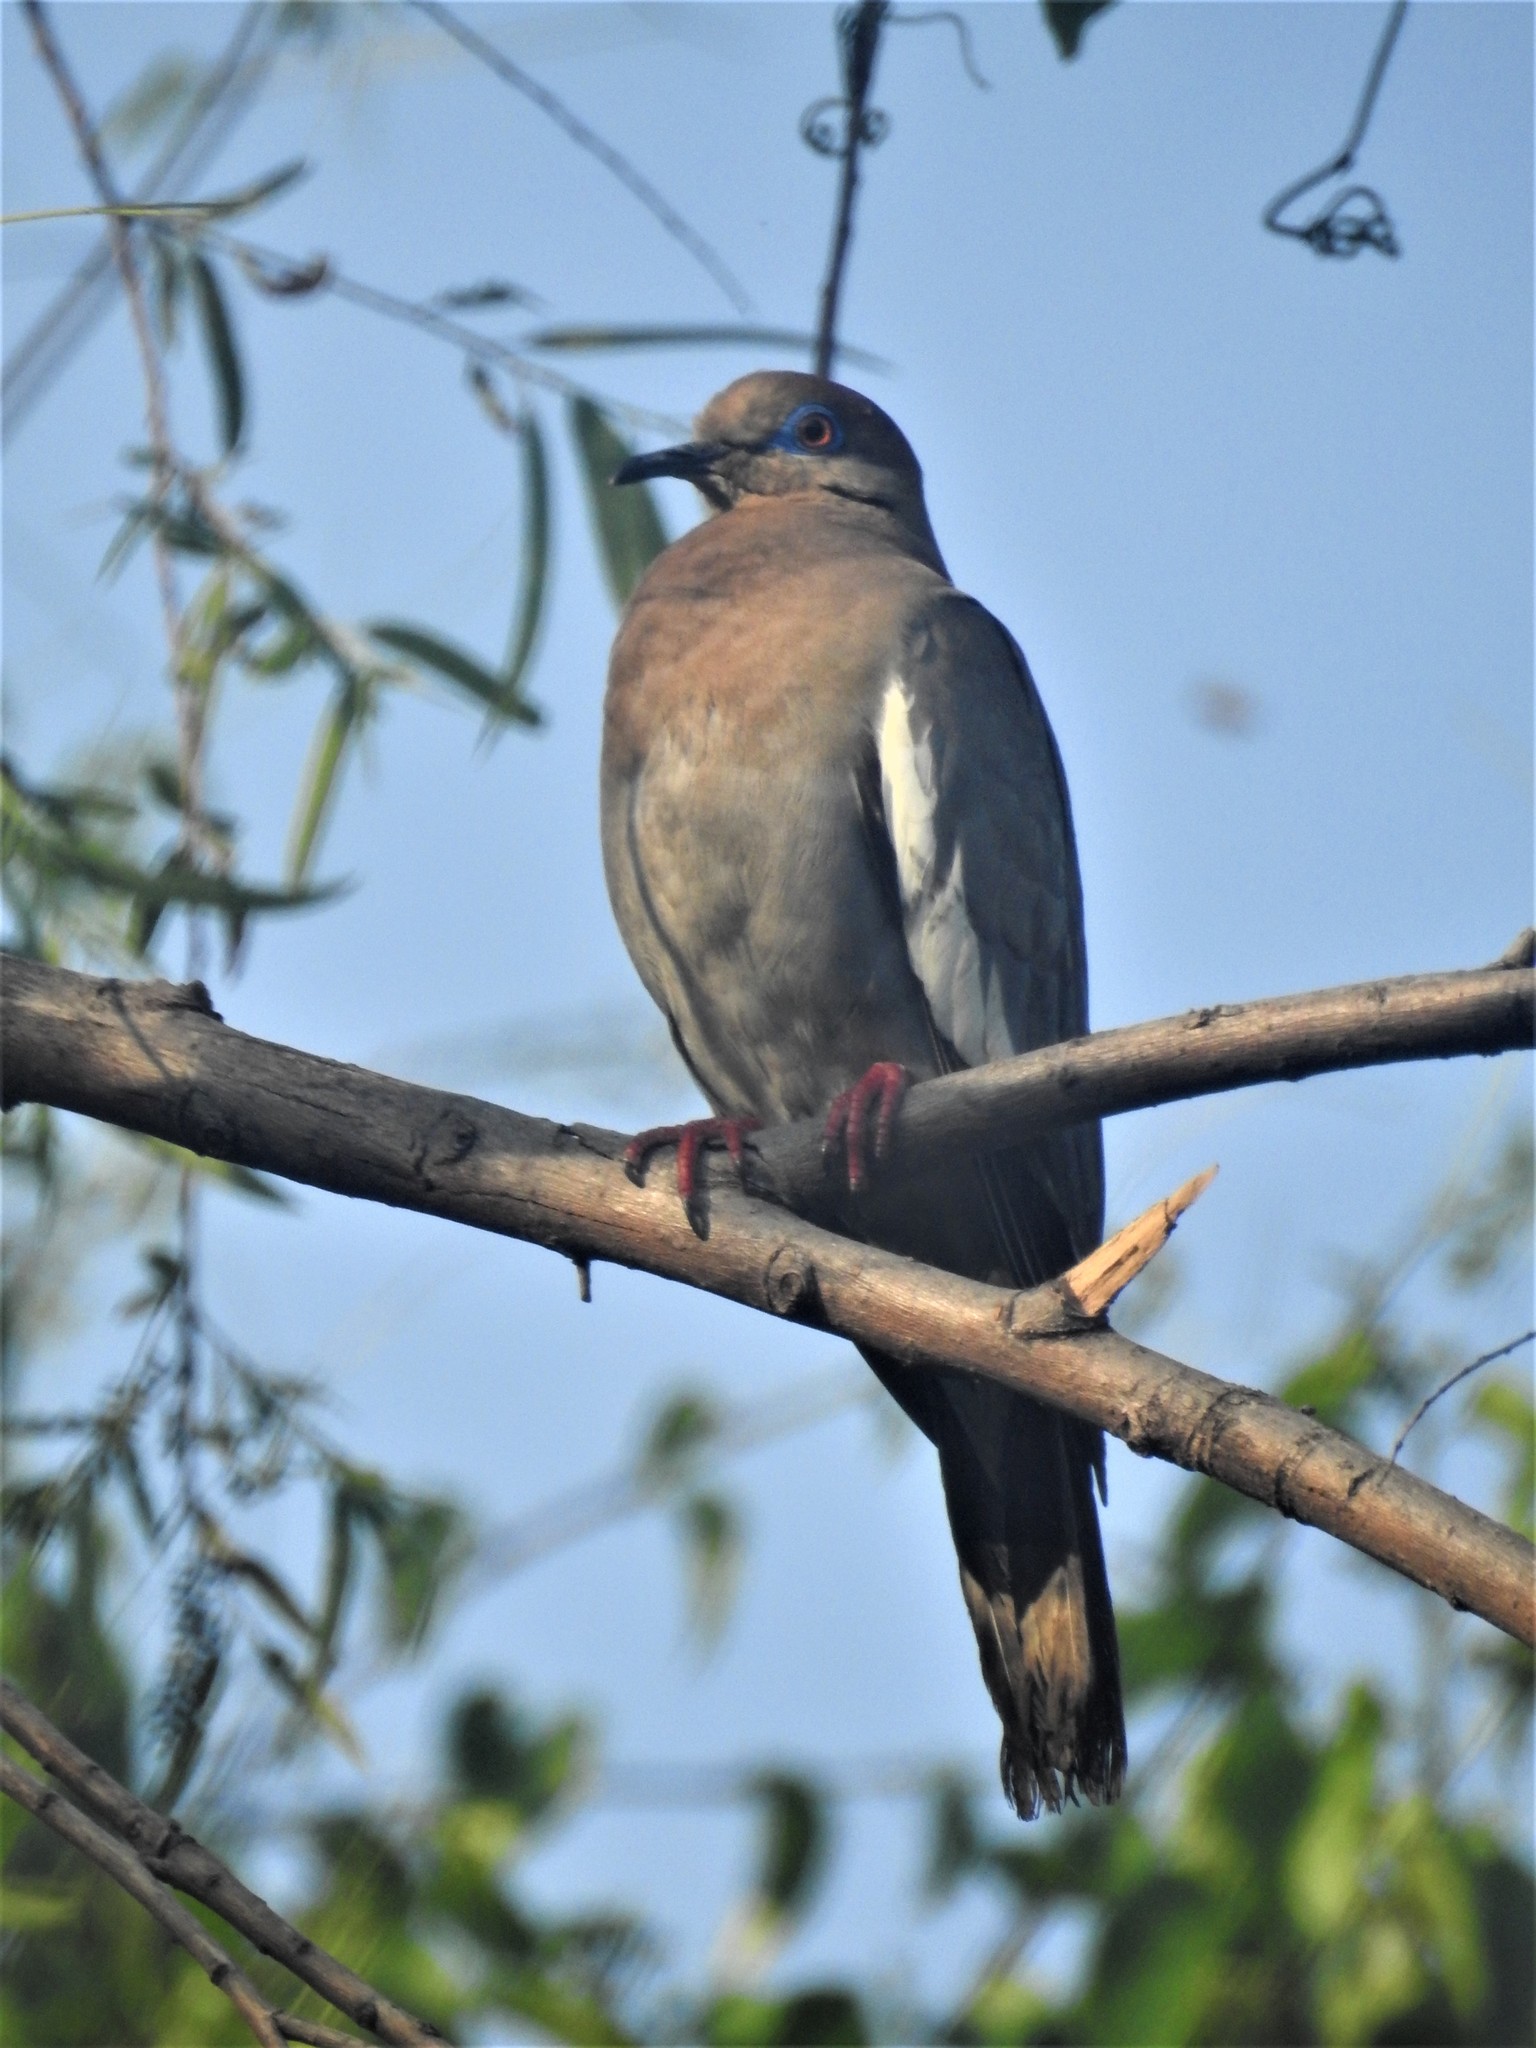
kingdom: Animalia
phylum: Chordata
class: Aves
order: Columbiformes
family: Columbidae
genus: Zenaida
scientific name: Zenaida asiatica
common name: White-winged dove
